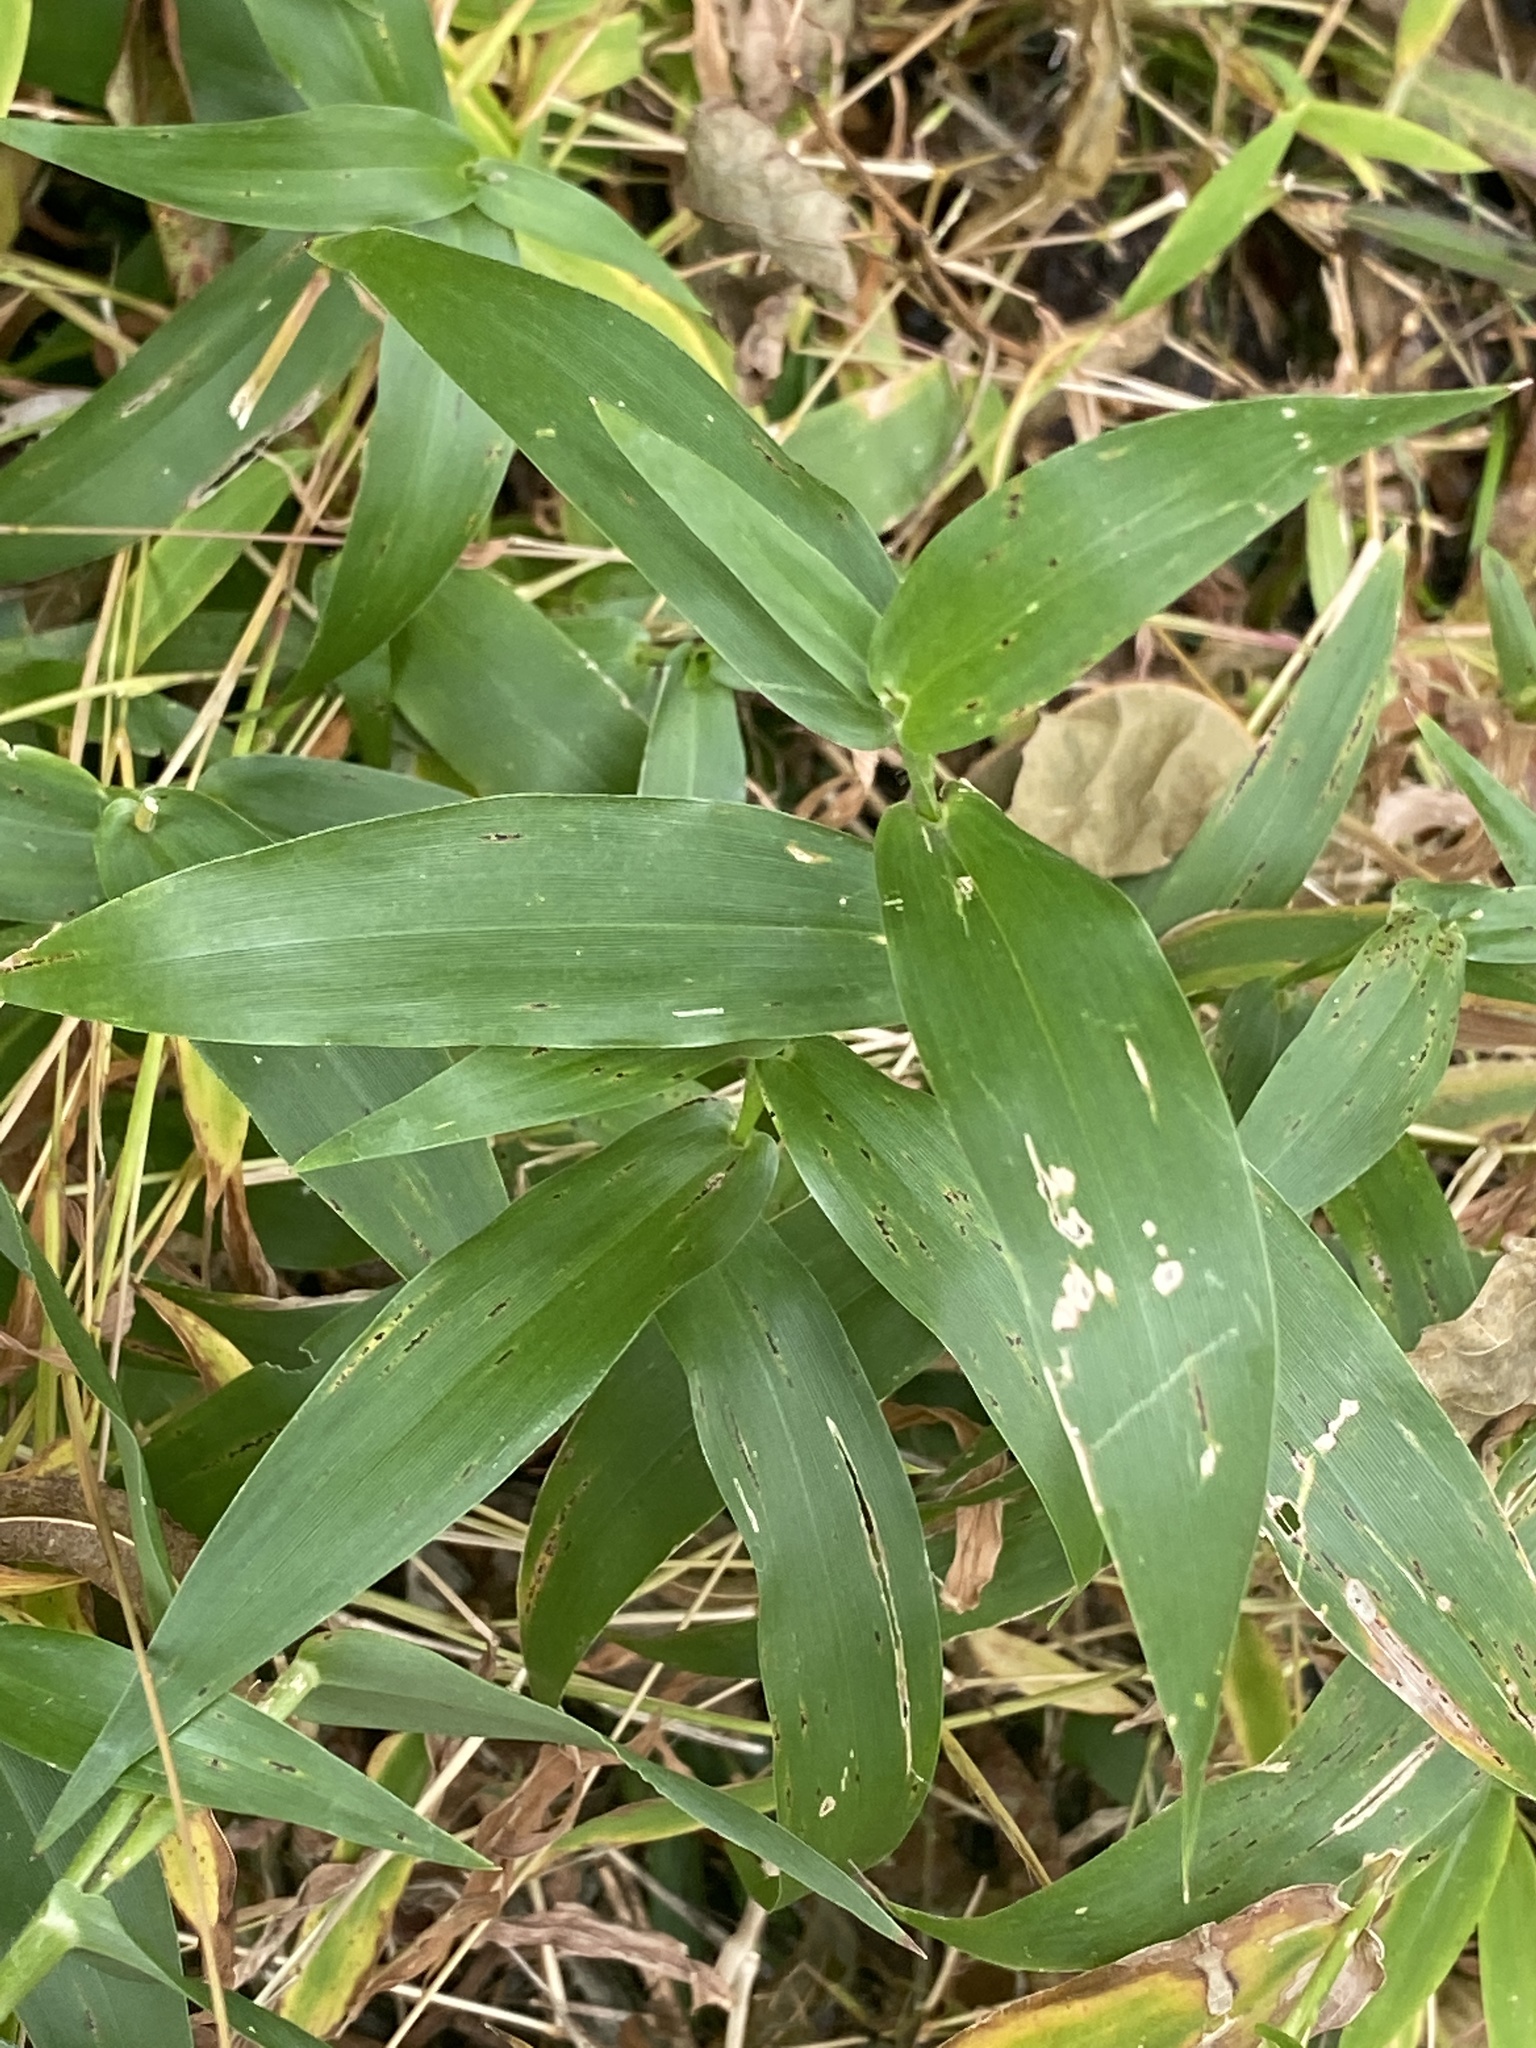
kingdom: Plantae
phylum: Tracheophyta
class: Liliopsida
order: Poales
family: Poaceae
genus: Dichanthelium
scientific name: Dichanthelium clandestinum
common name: Deer-tongue grass
